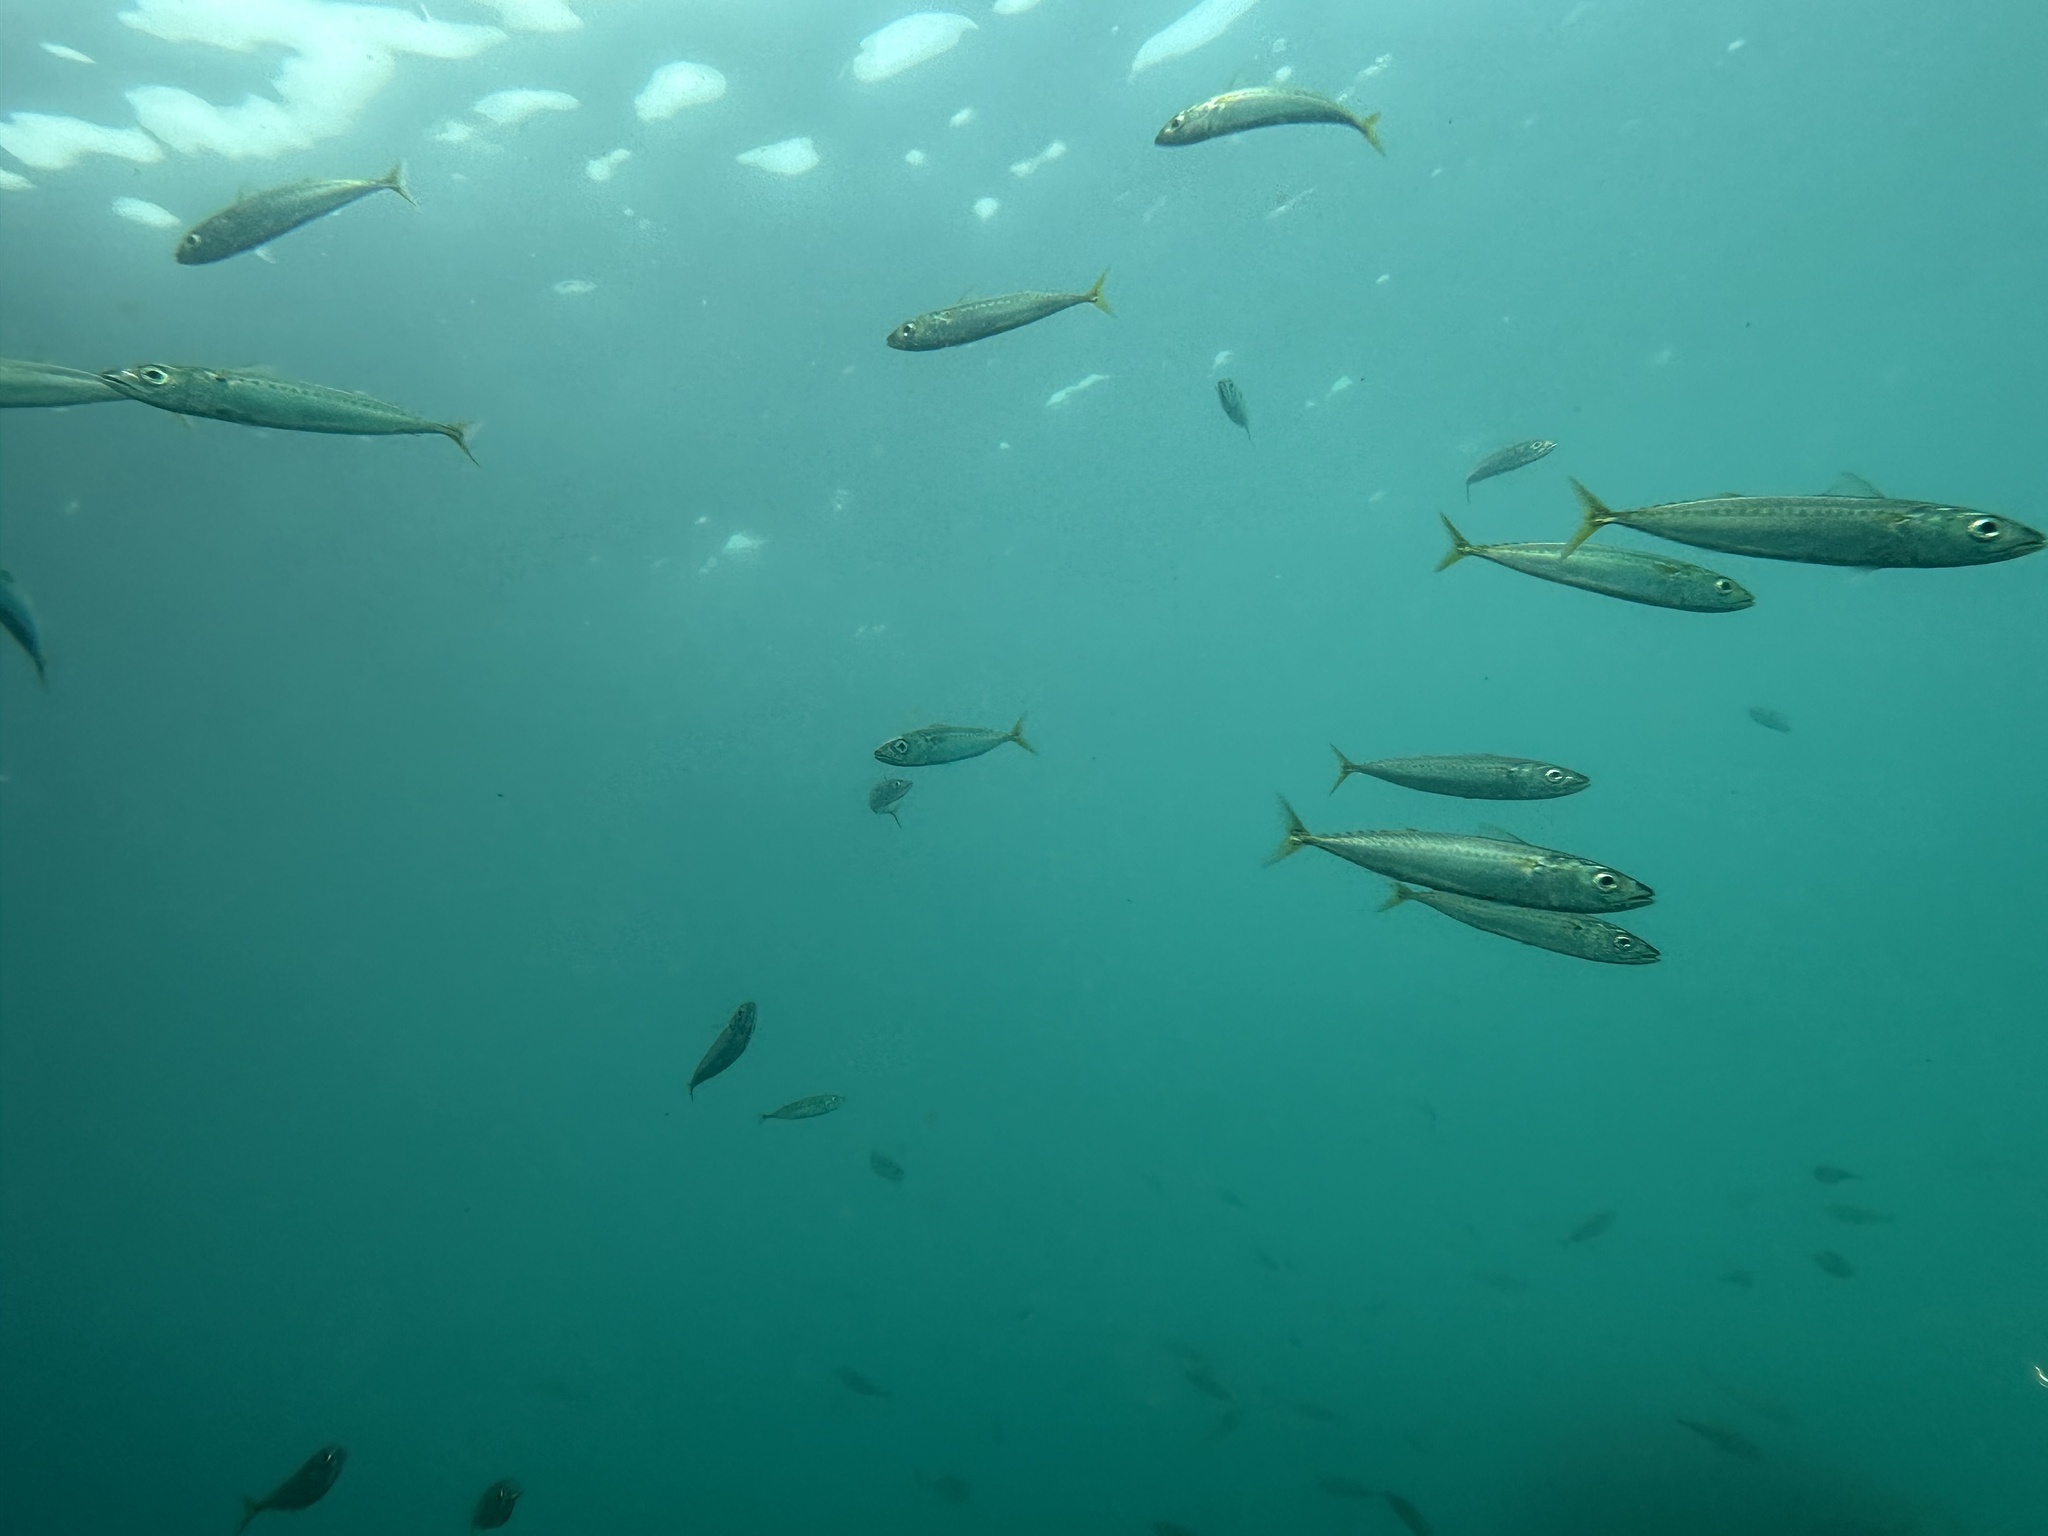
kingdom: Animalia
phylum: Chordata
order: Perciformes
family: Scombridae
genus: Scomber
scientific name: Scomber australasicus
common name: Blue mackerel
